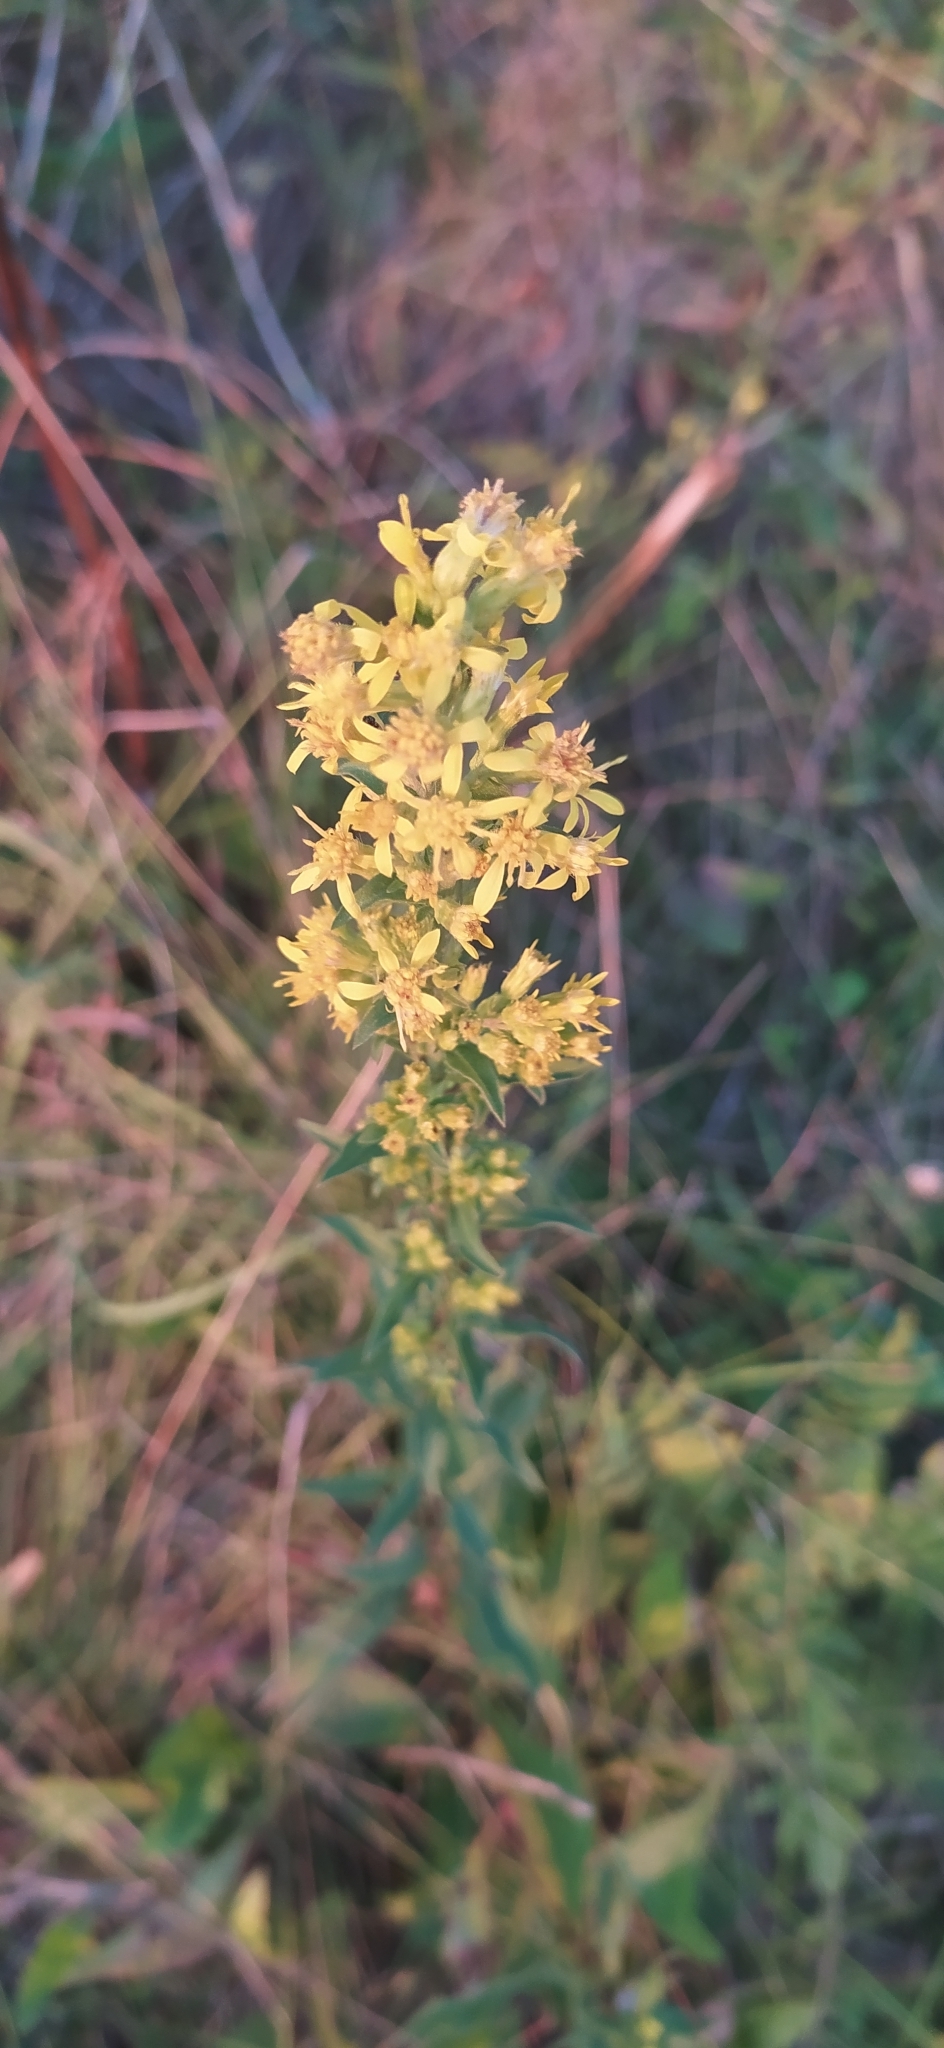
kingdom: Plantae
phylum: Tracheophyta
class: Magnoliopsida
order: Asterales
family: Asteraceae
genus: Solidago
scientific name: Solidago virgaurea
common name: Goldenrod
